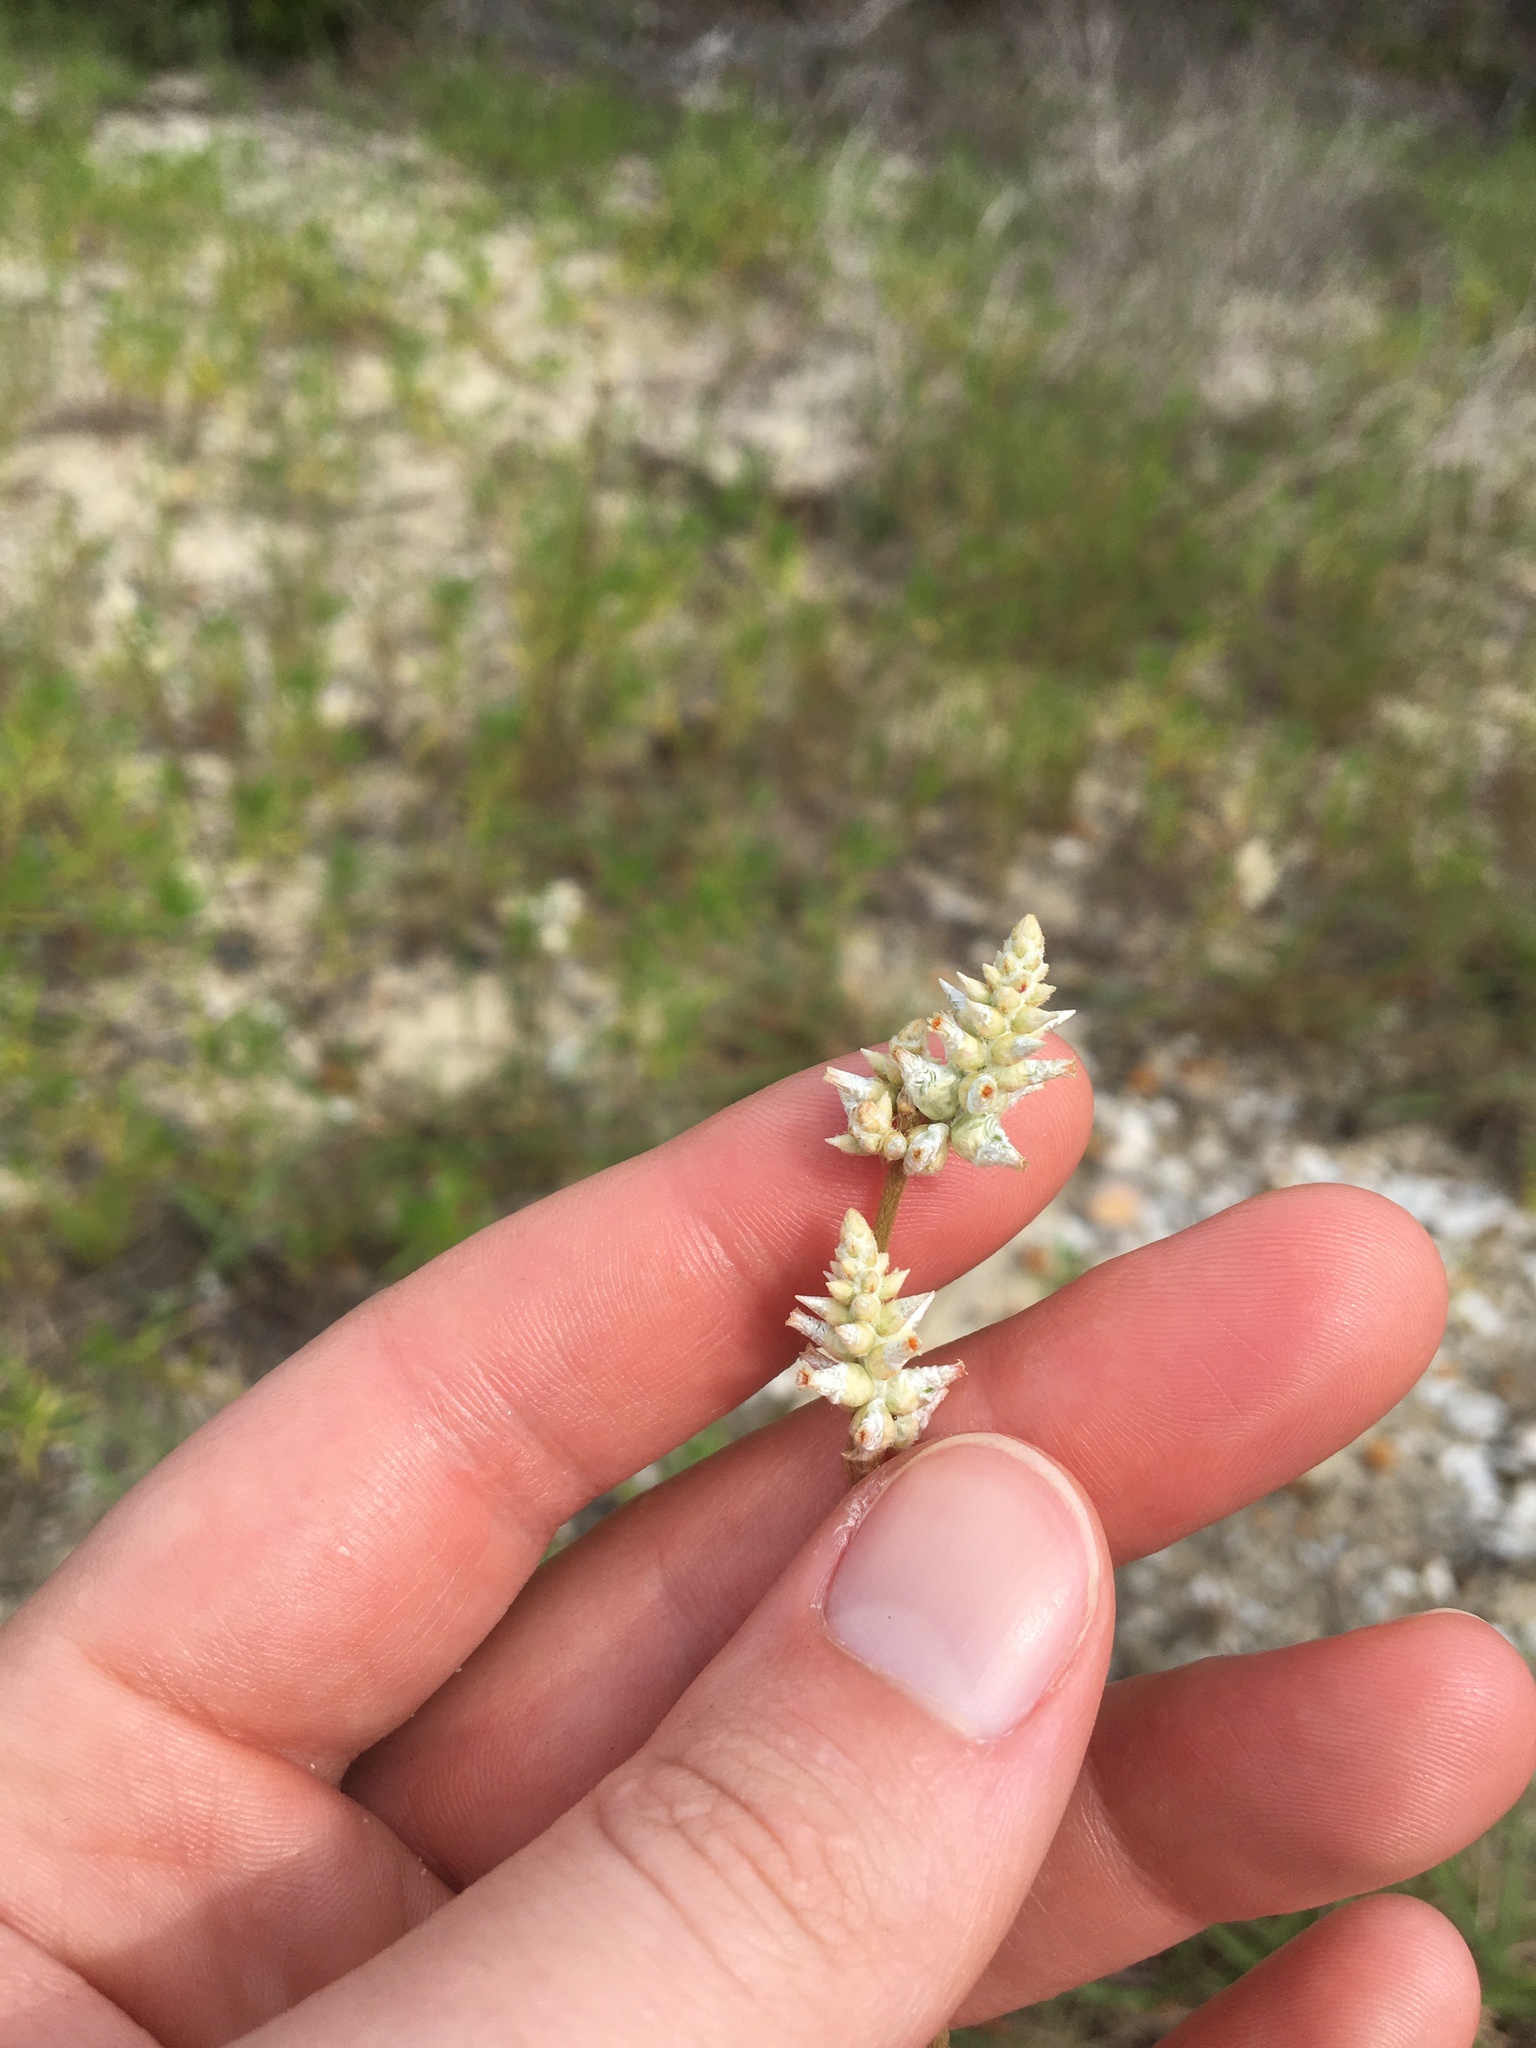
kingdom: Plantae
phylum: Tracheophyta
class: Magnoliopsida
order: Caryophyllales
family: Amaranthaceae
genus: Froelichia
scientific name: Froelichia floridana
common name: Florida snake-cotton
